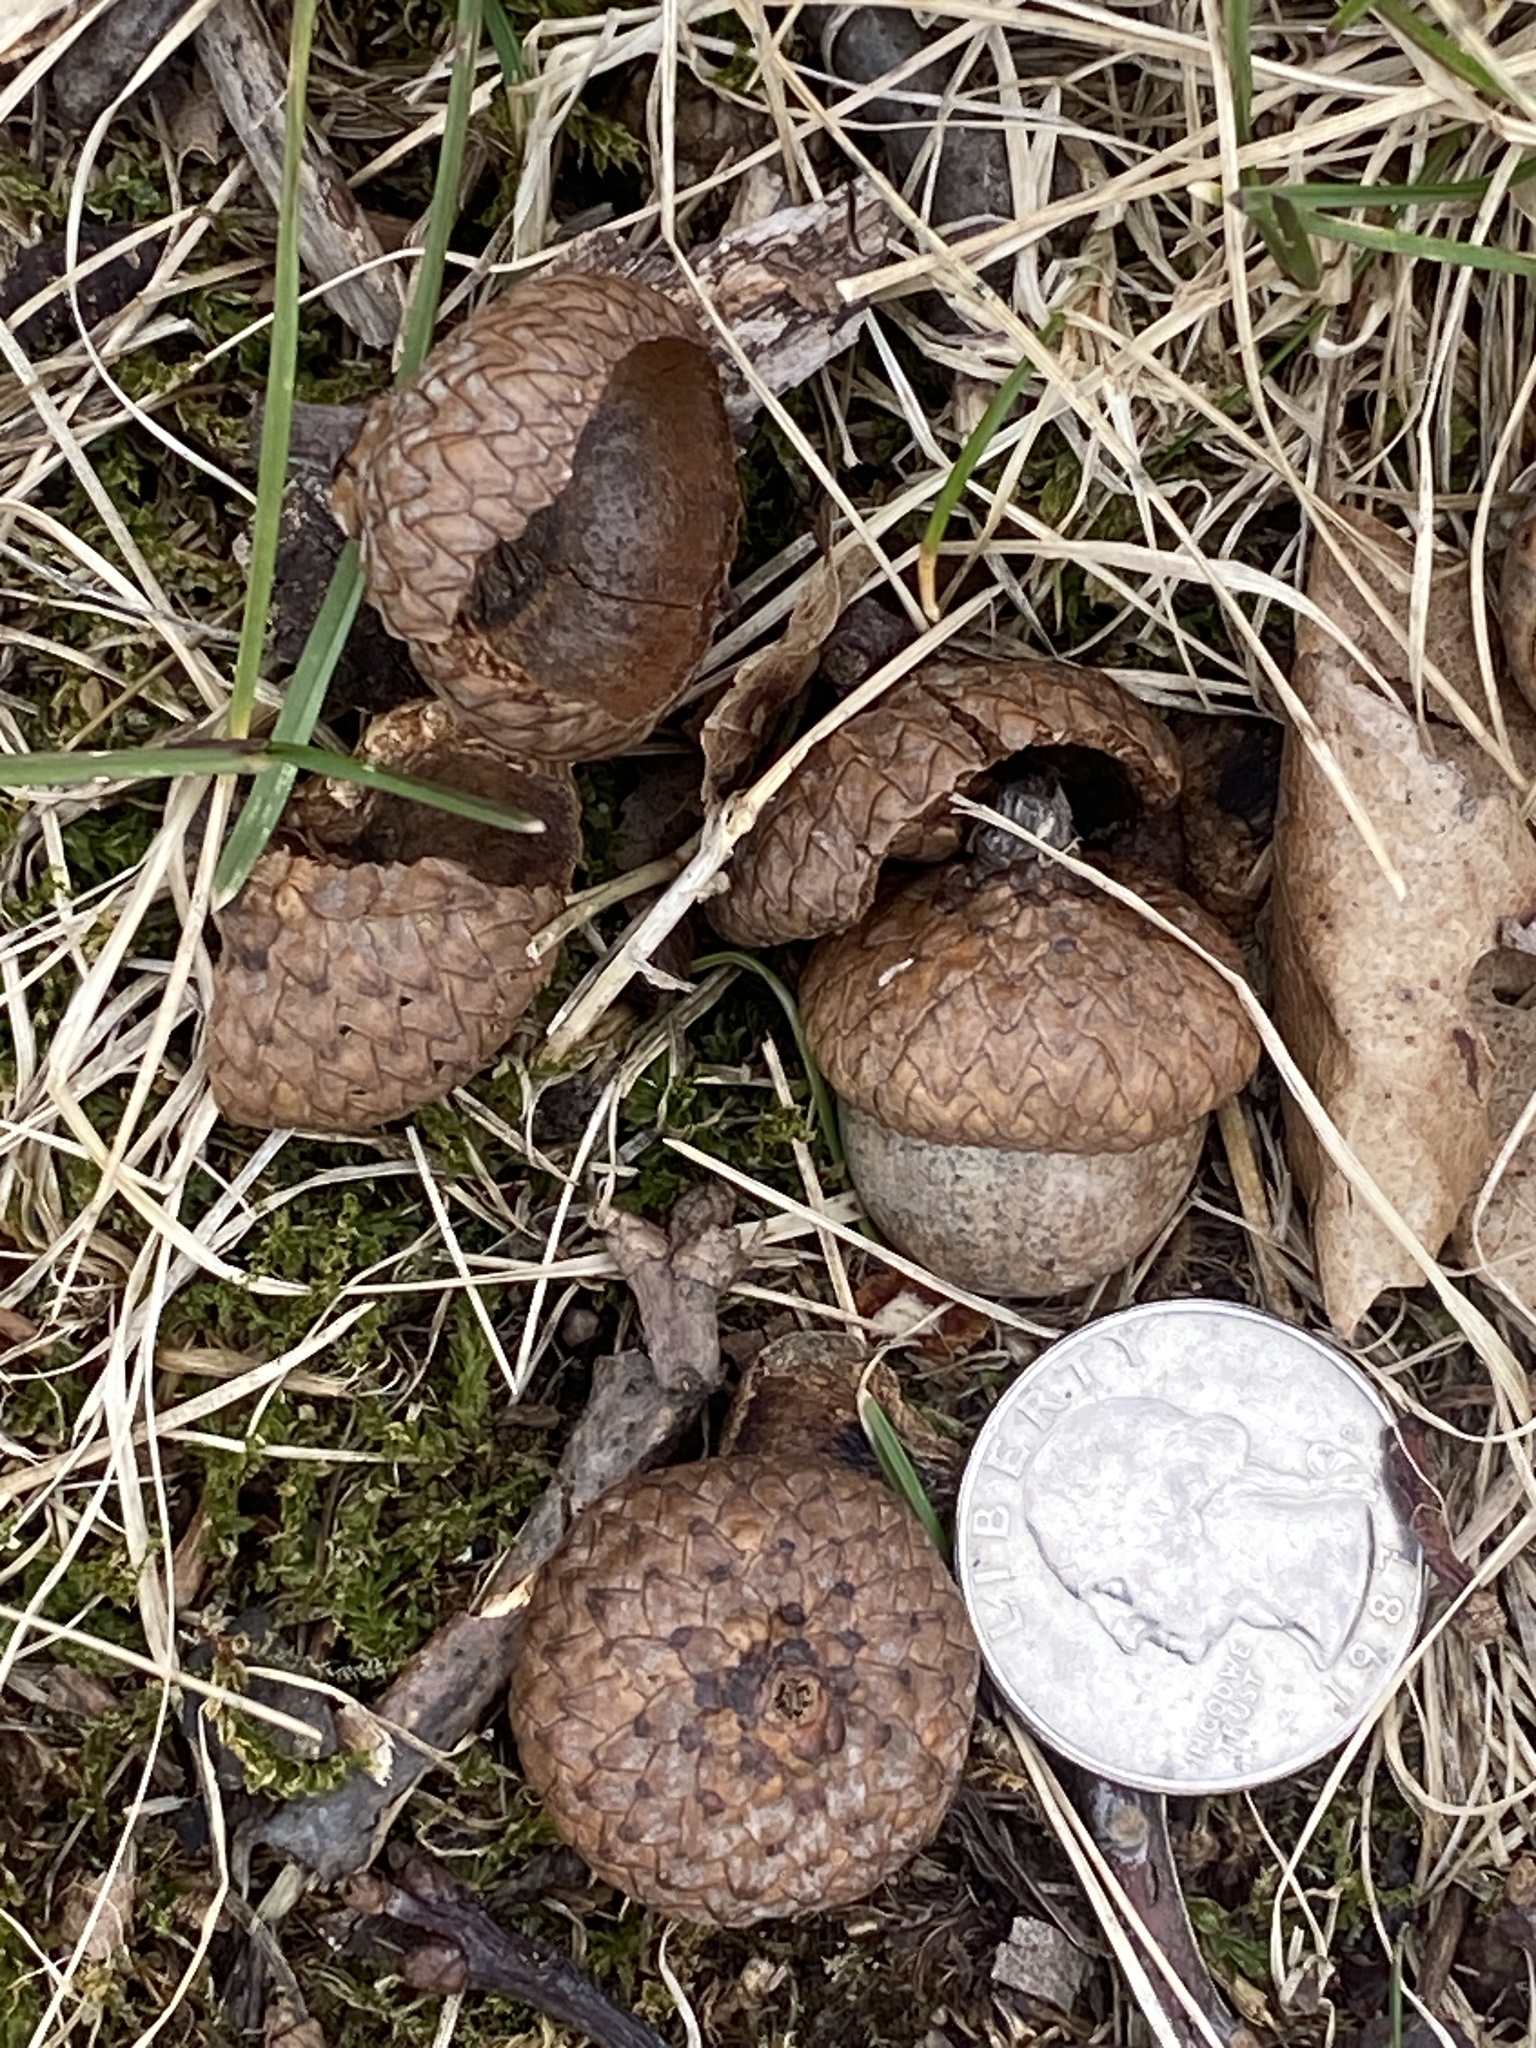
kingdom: Plantae
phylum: Tracheophyta
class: Magnoliopsida
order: Fagales
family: Fagaceae
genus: Quercus
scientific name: Quercus rubra
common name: Red oak
